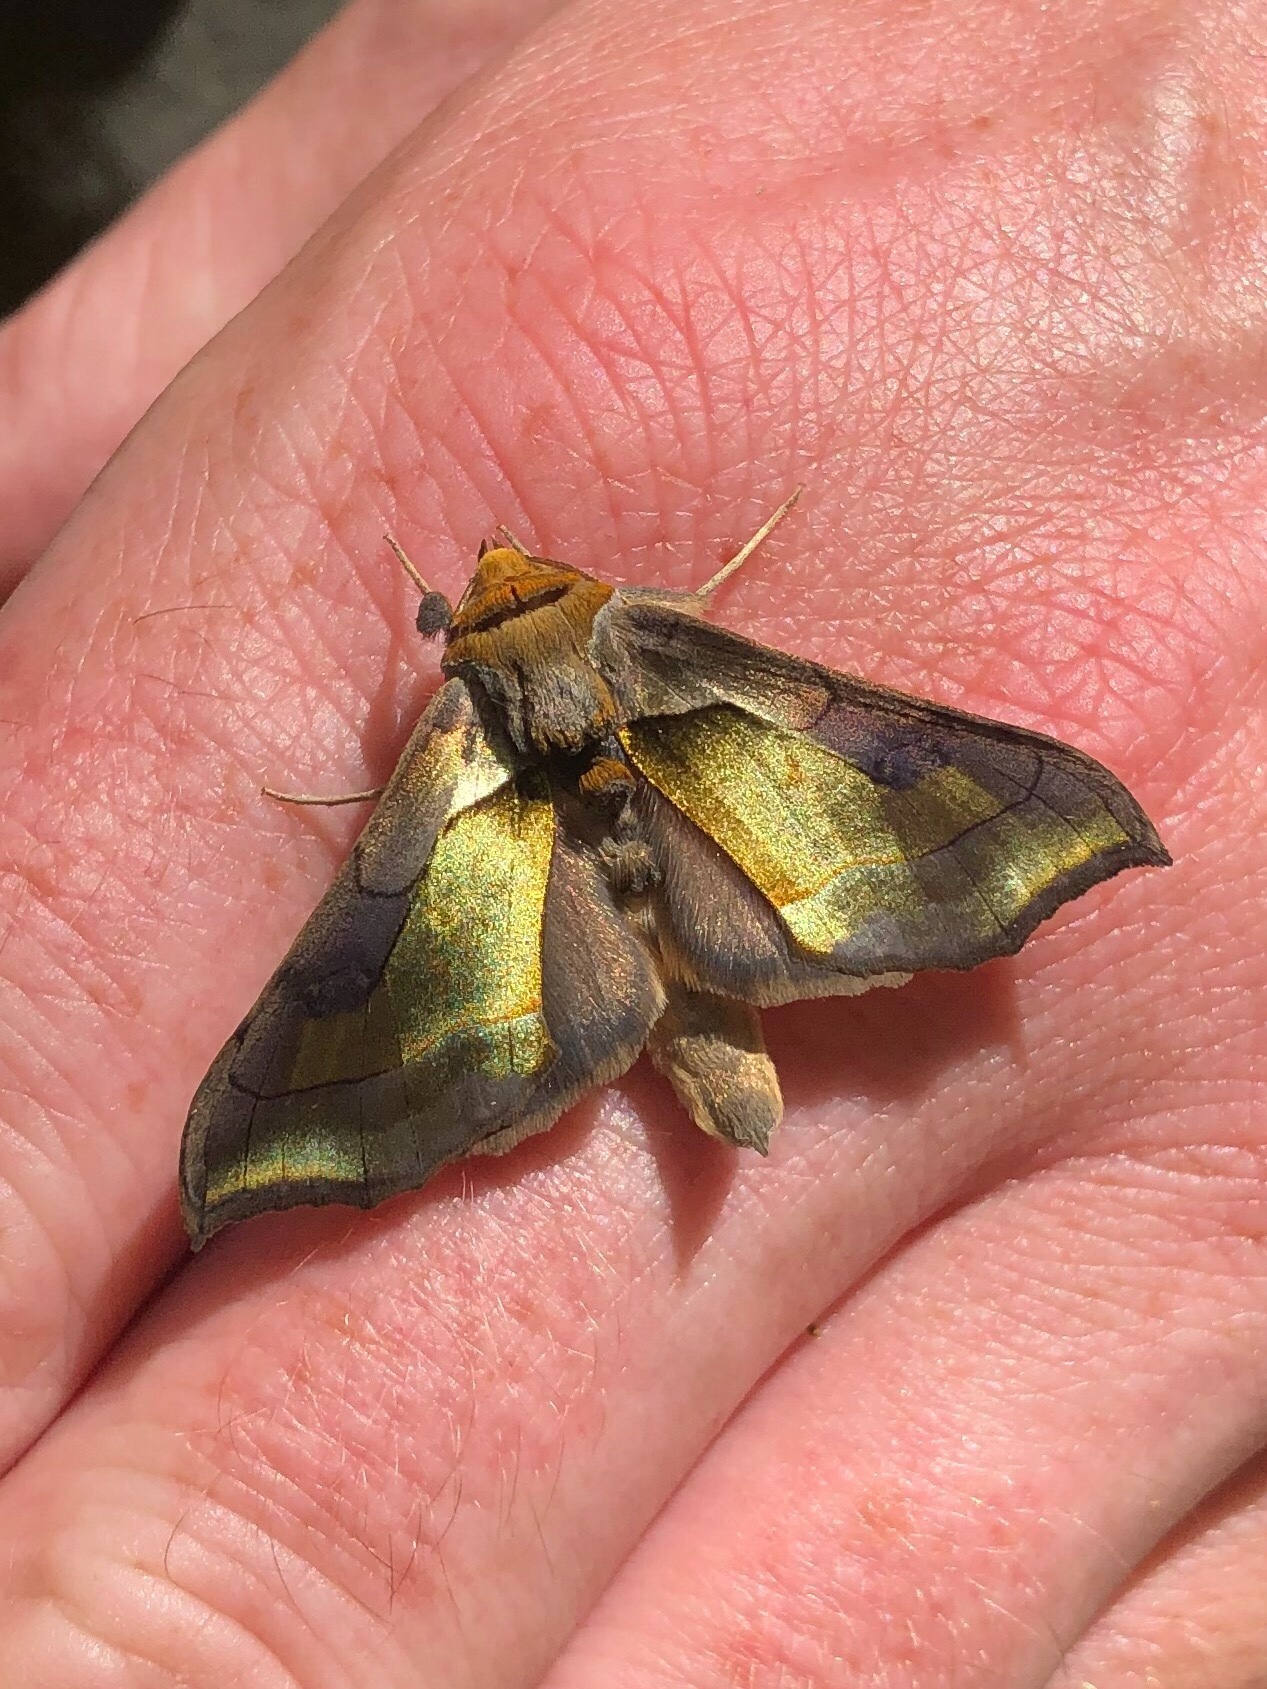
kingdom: Animalia
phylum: Arthropoda
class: Insecta
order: Lepidoptera
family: Noctuidae
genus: Diachrysia
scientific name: Diachrysia balluca
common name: Green-patched looper moth
